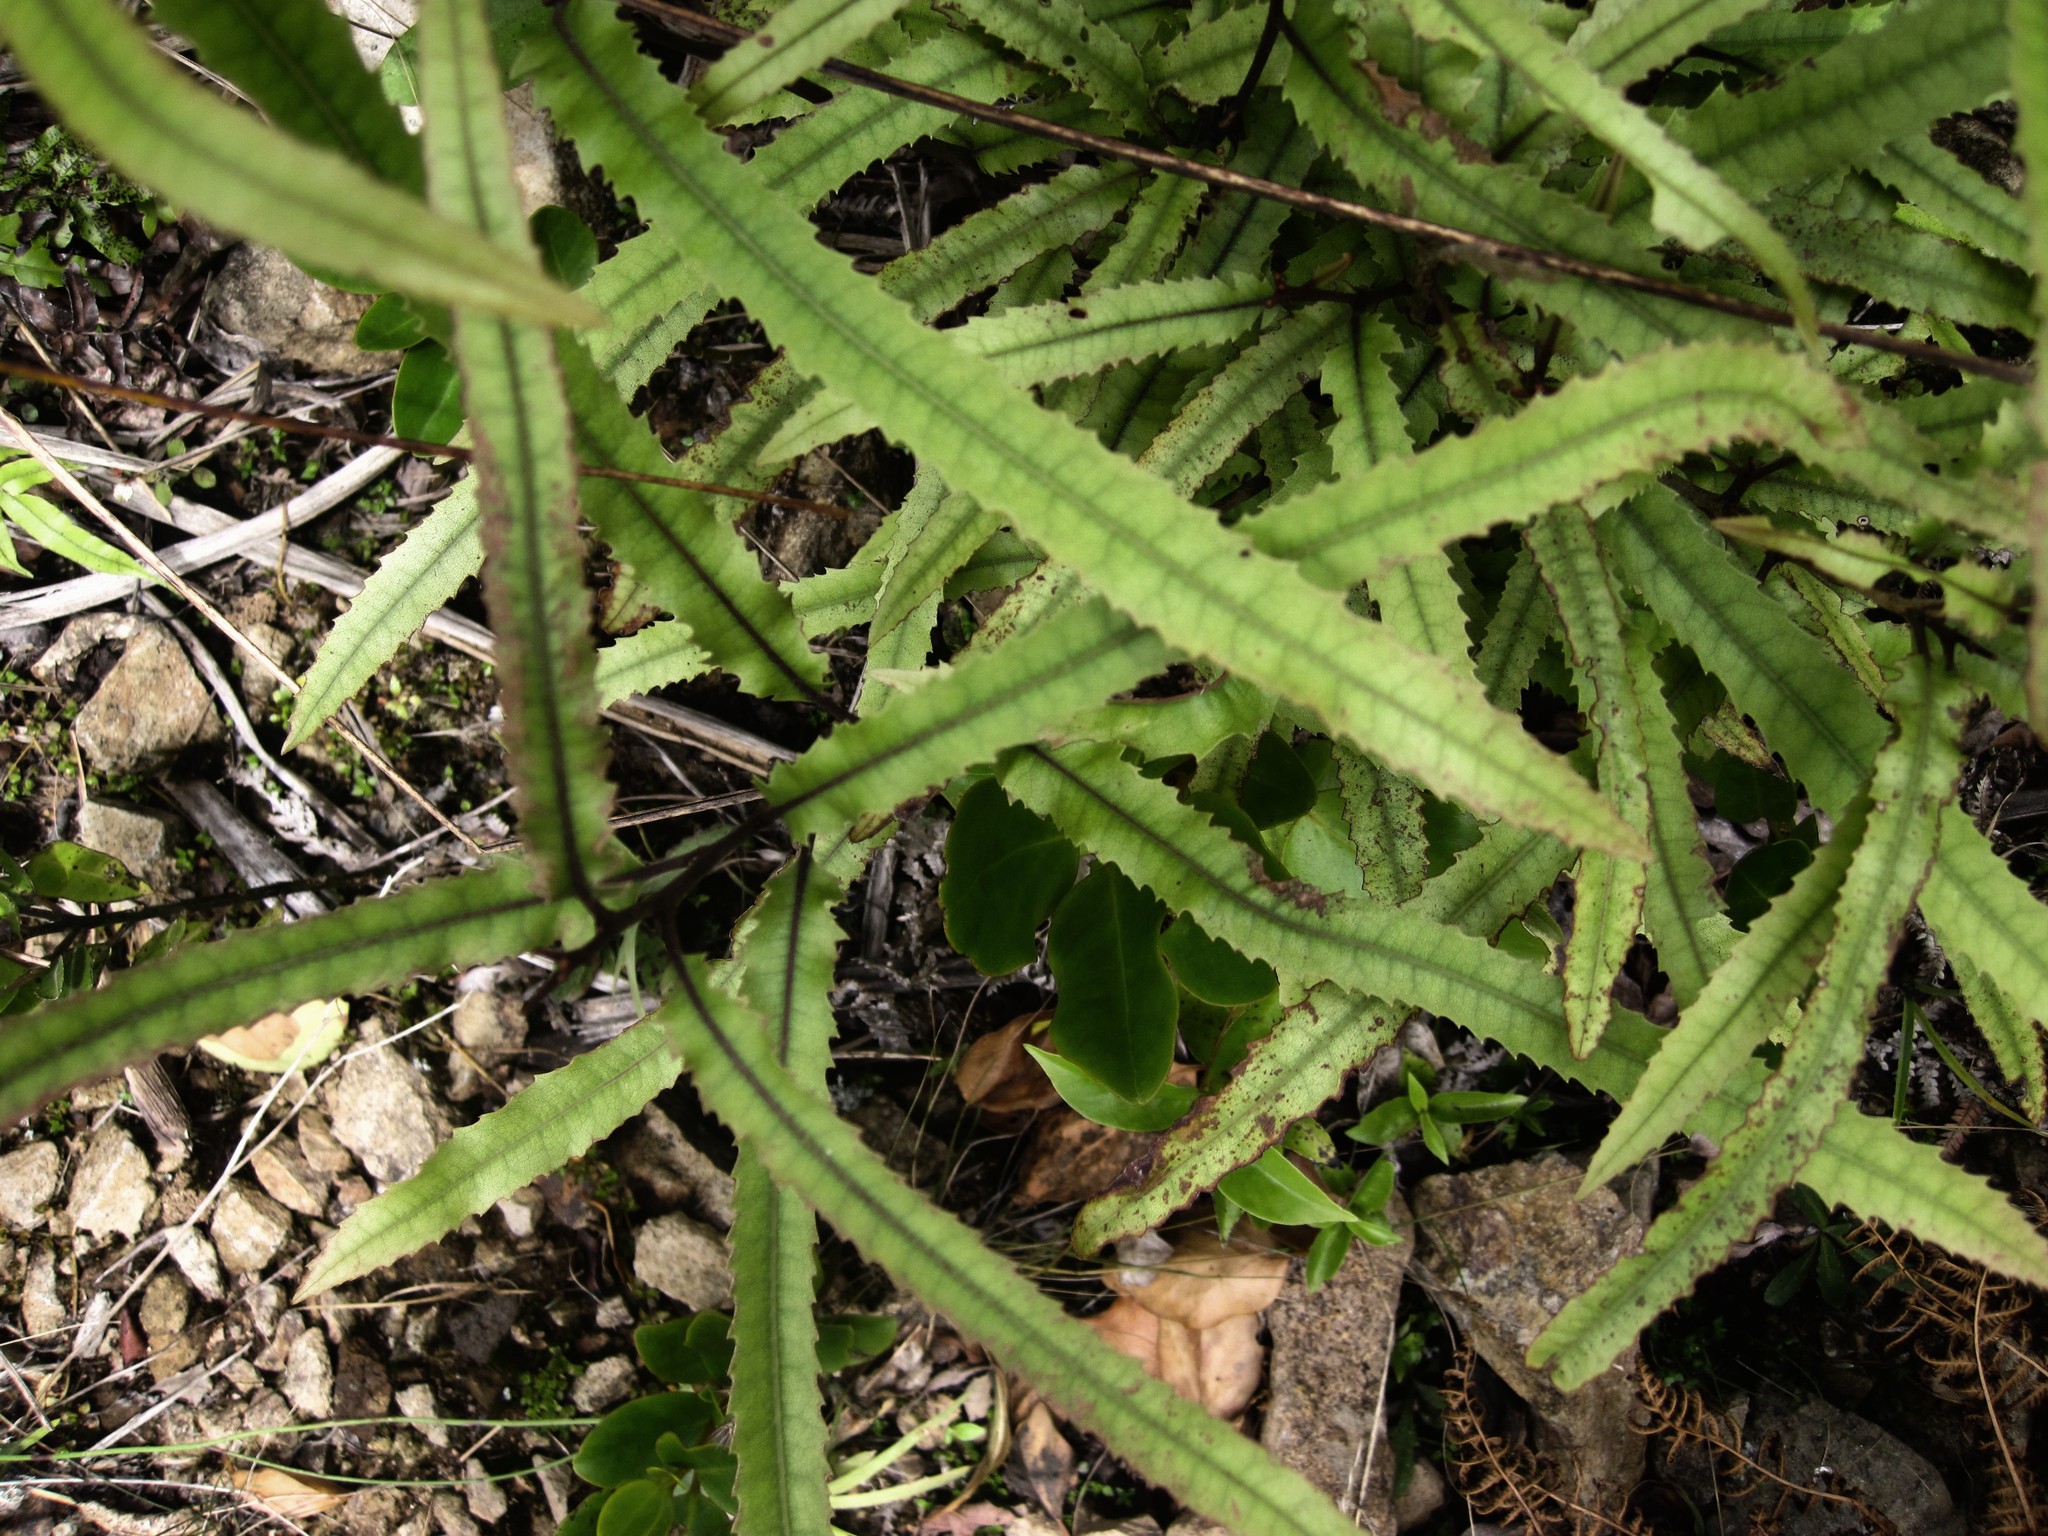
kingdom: Plantae
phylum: Tracheophyta
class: Magnoliopsida
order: Proteales
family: Proteaceae
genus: Knightia
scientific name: Knightia excelsa
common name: New zealand-honeysuckle
